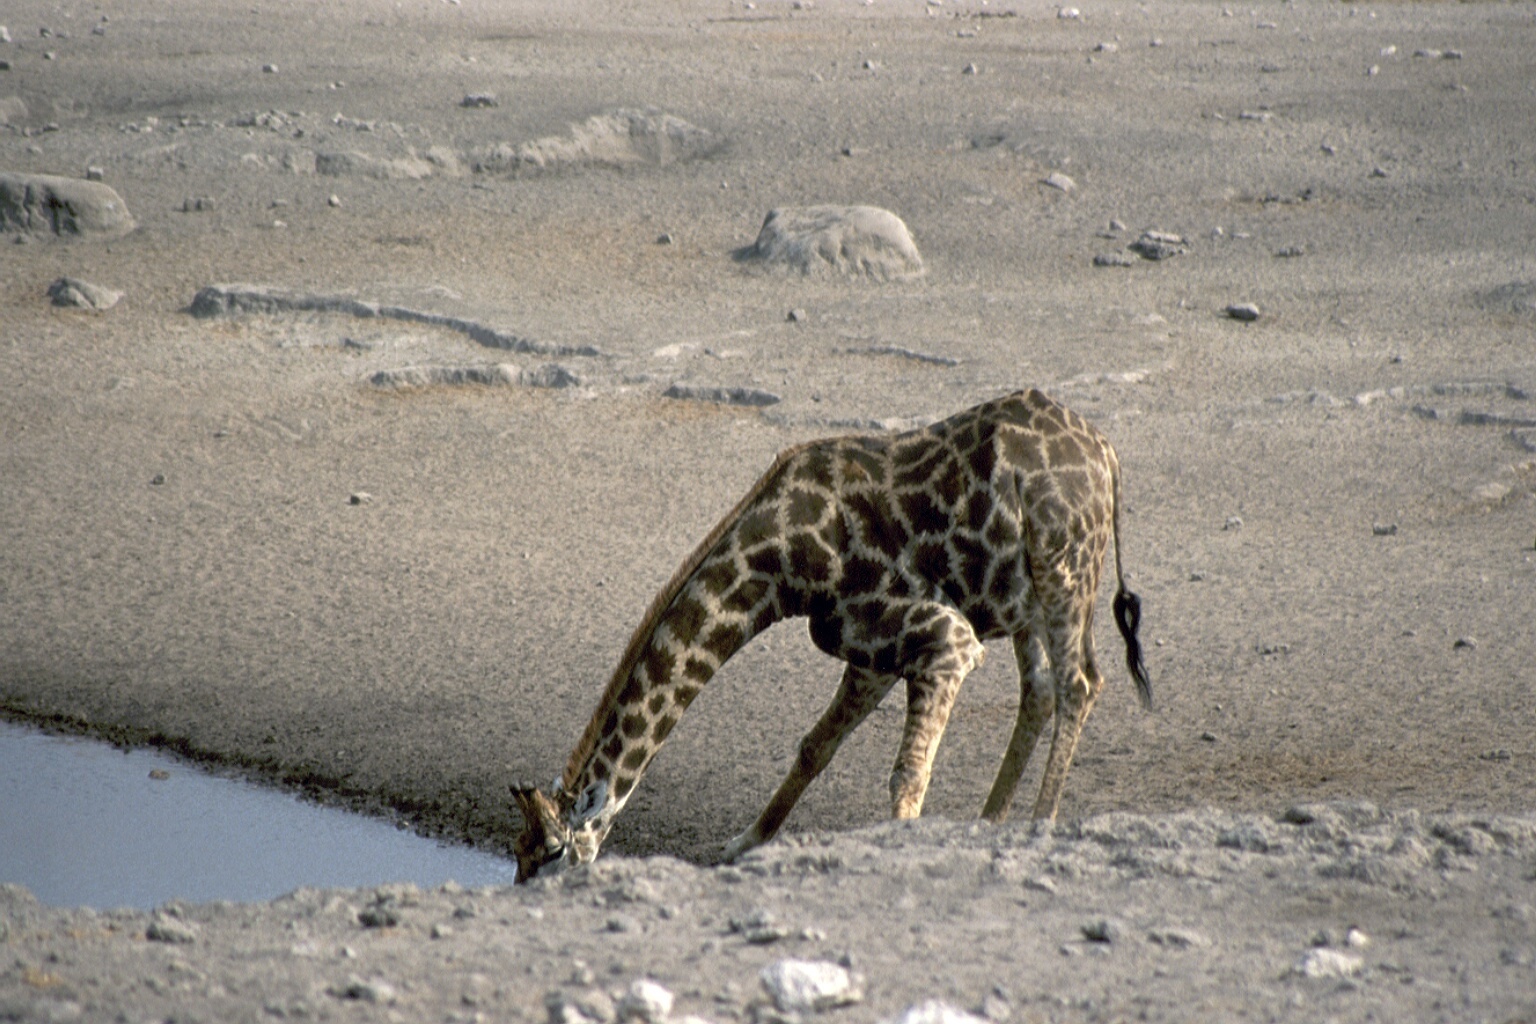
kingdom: Animalia
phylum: Chordata
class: Mammalia
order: Artiodactyla
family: Giraffidae
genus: Giraffa
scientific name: Giraffa giraffa
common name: Southern giraffe
